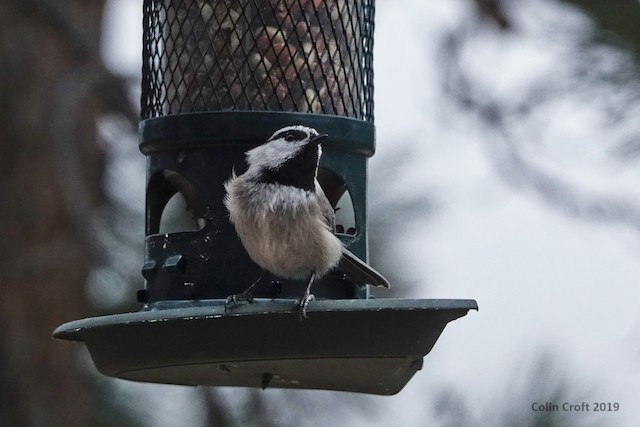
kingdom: Animalia
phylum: Chordata
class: Aves
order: Passeriformes
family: Paridae
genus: Poecile
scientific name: Poecile gambeli
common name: Mountain chickadee
